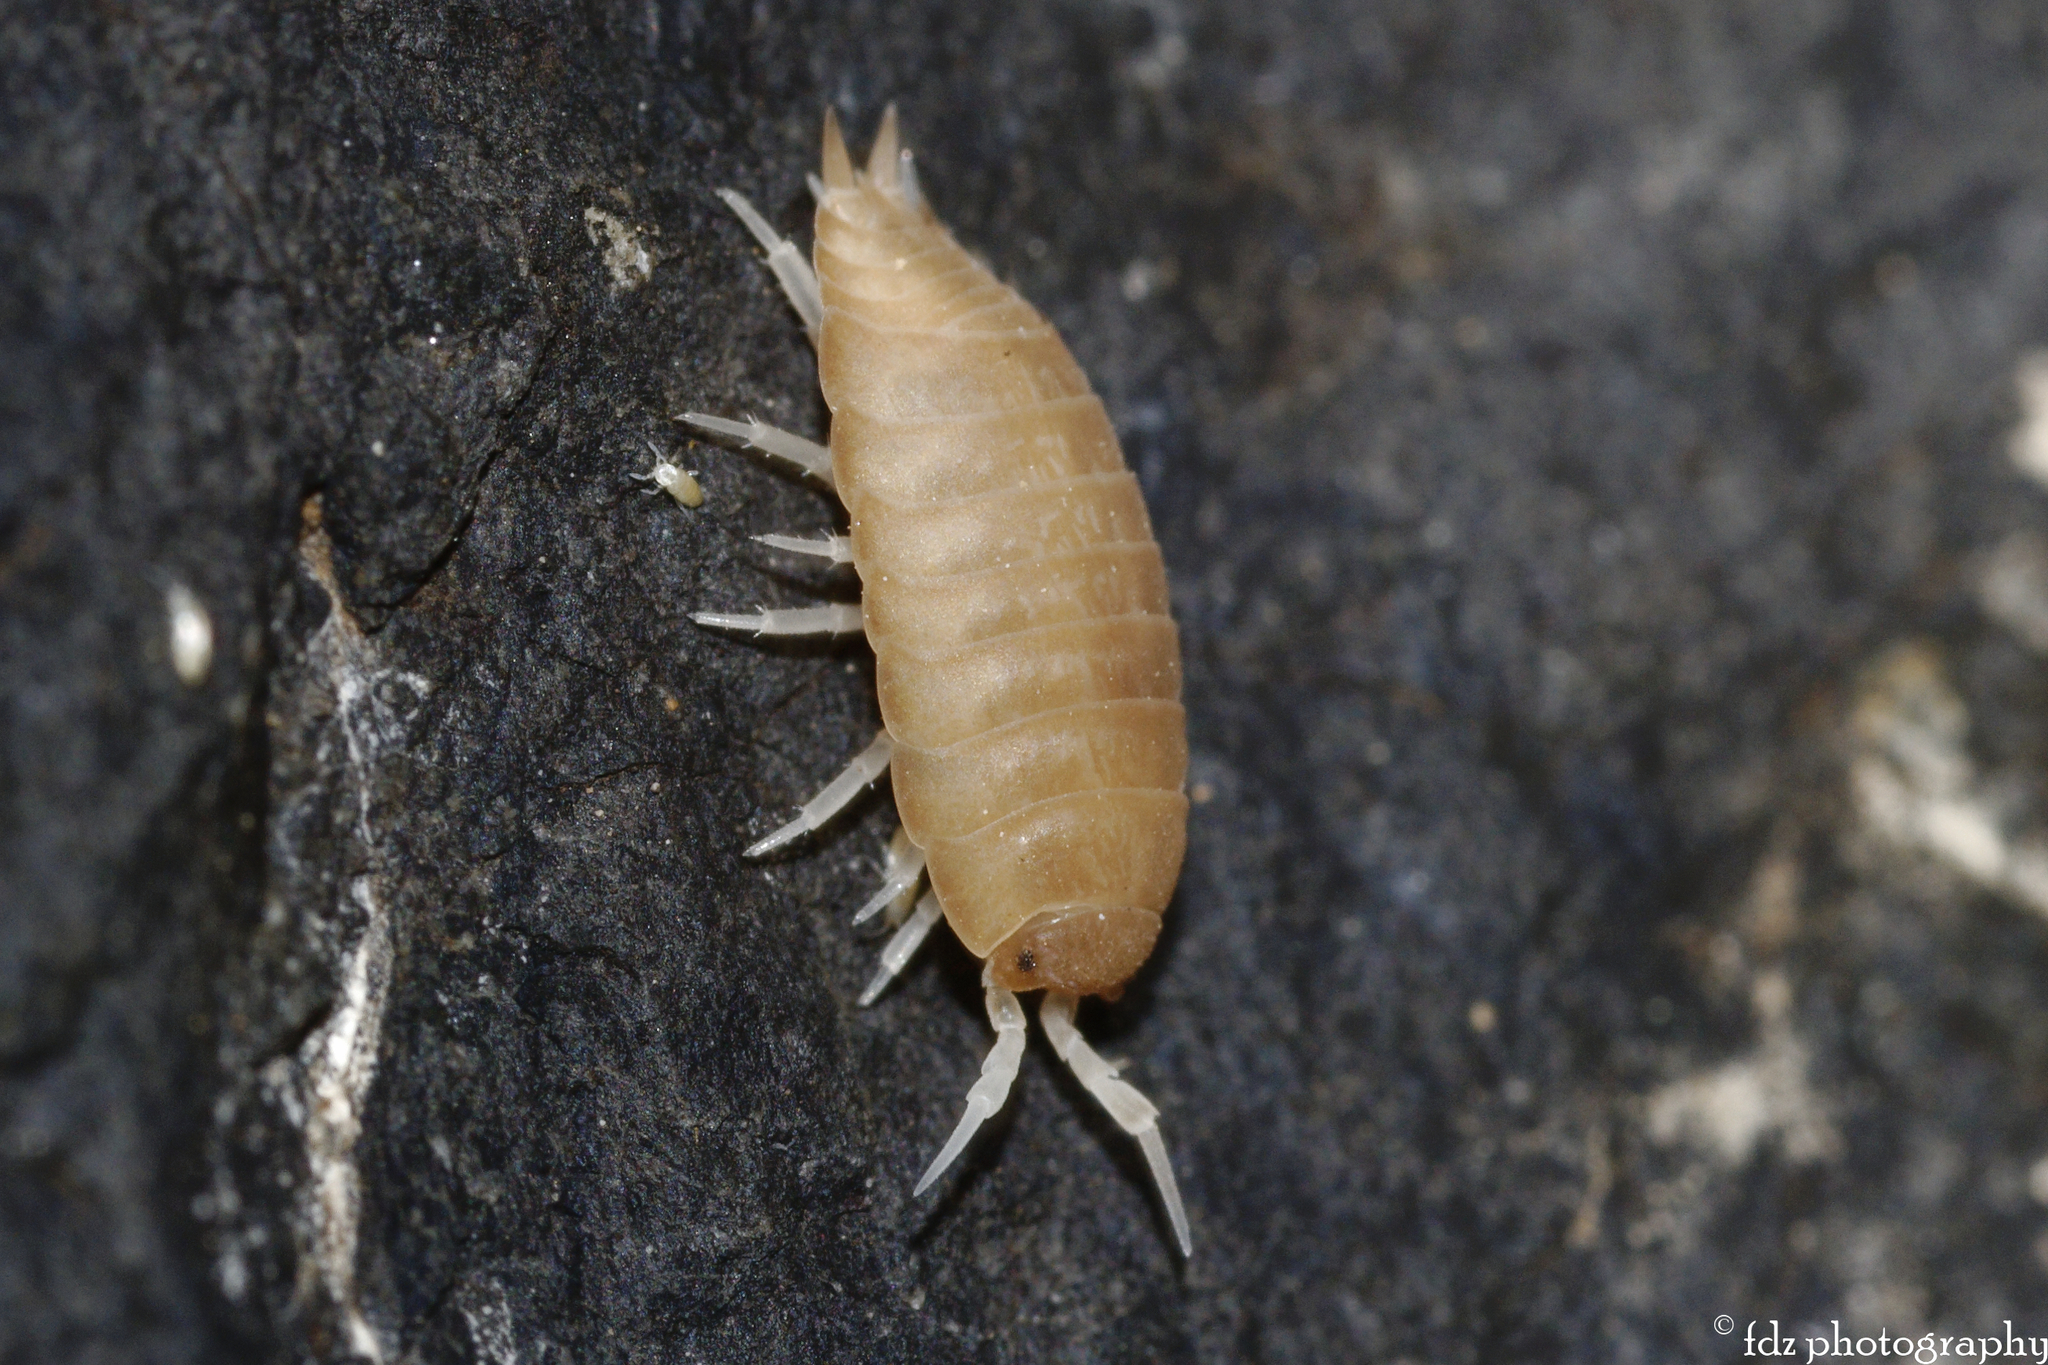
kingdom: Animalia
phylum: Arthropoda
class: Malacostraca
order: Isopoda
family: Porcellionidae
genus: Lucasius
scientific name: Lucasius andalusicus
